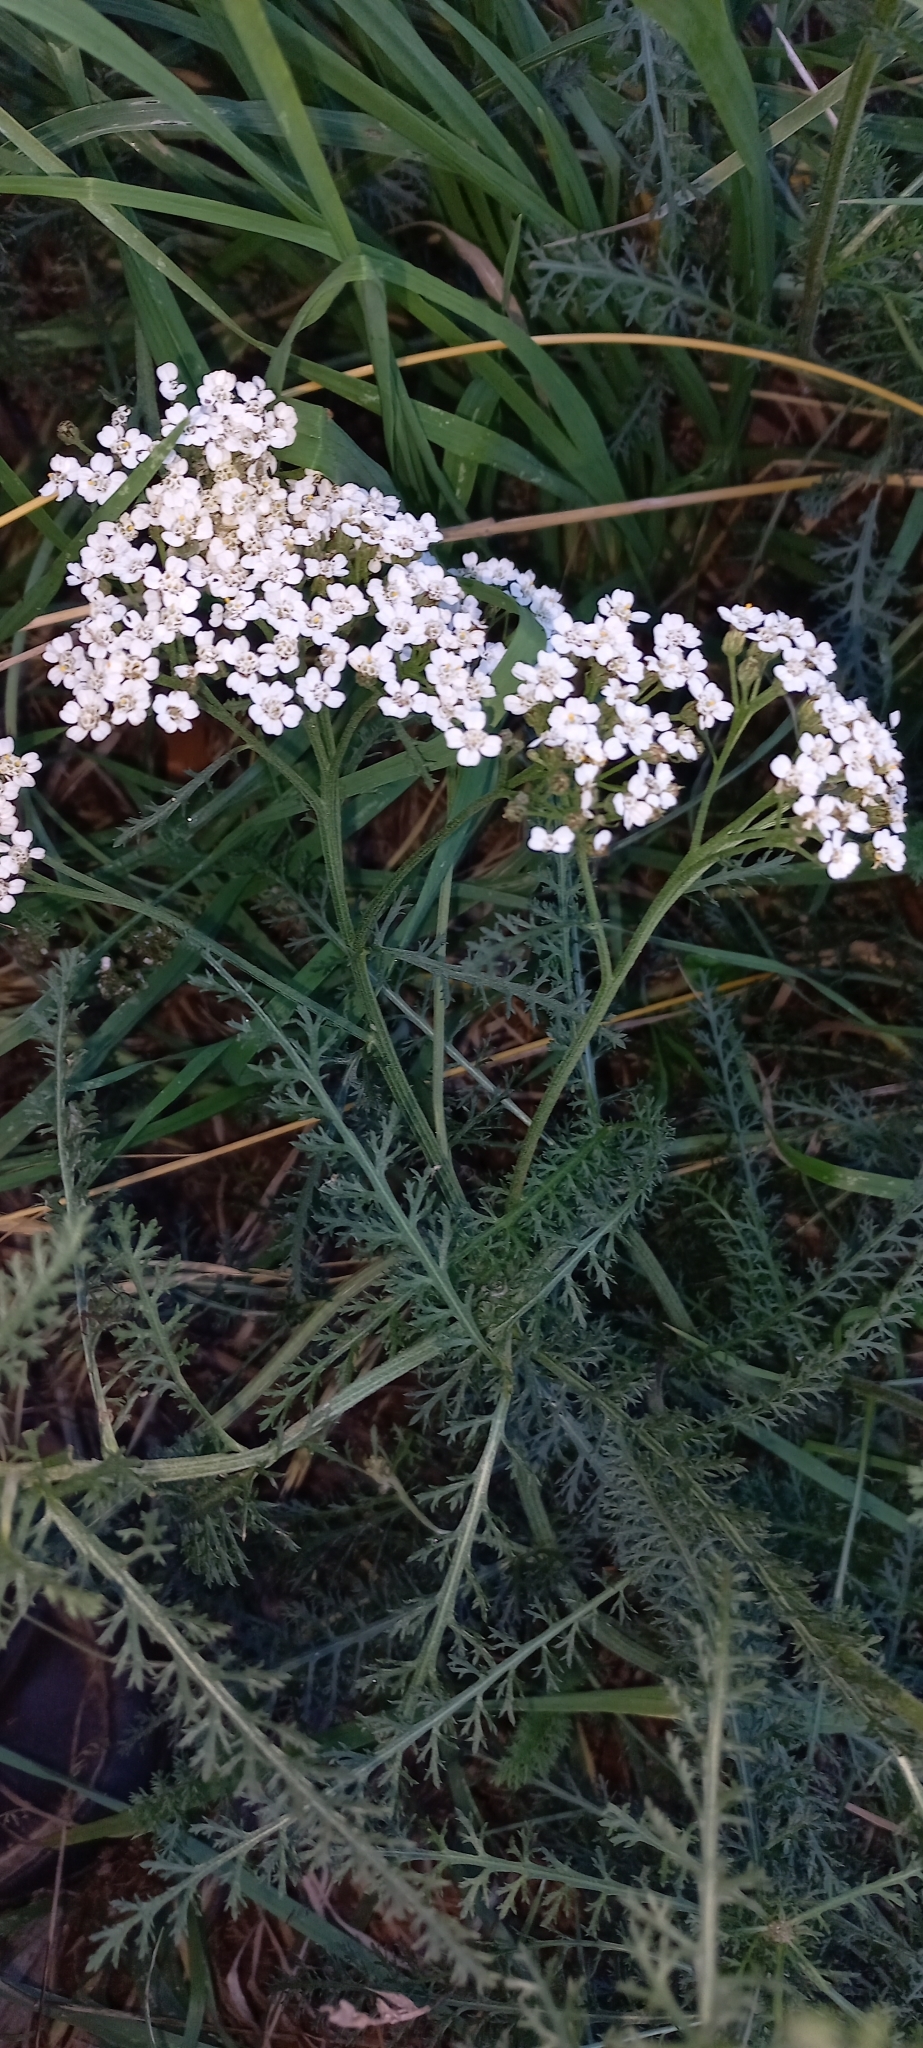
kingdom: Plantae
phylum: Tracheophyta
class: Magnoliopsida
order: Asterales
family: Asteraceae
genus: Achillea
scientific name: Achillea millefolium
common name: Yarrow
